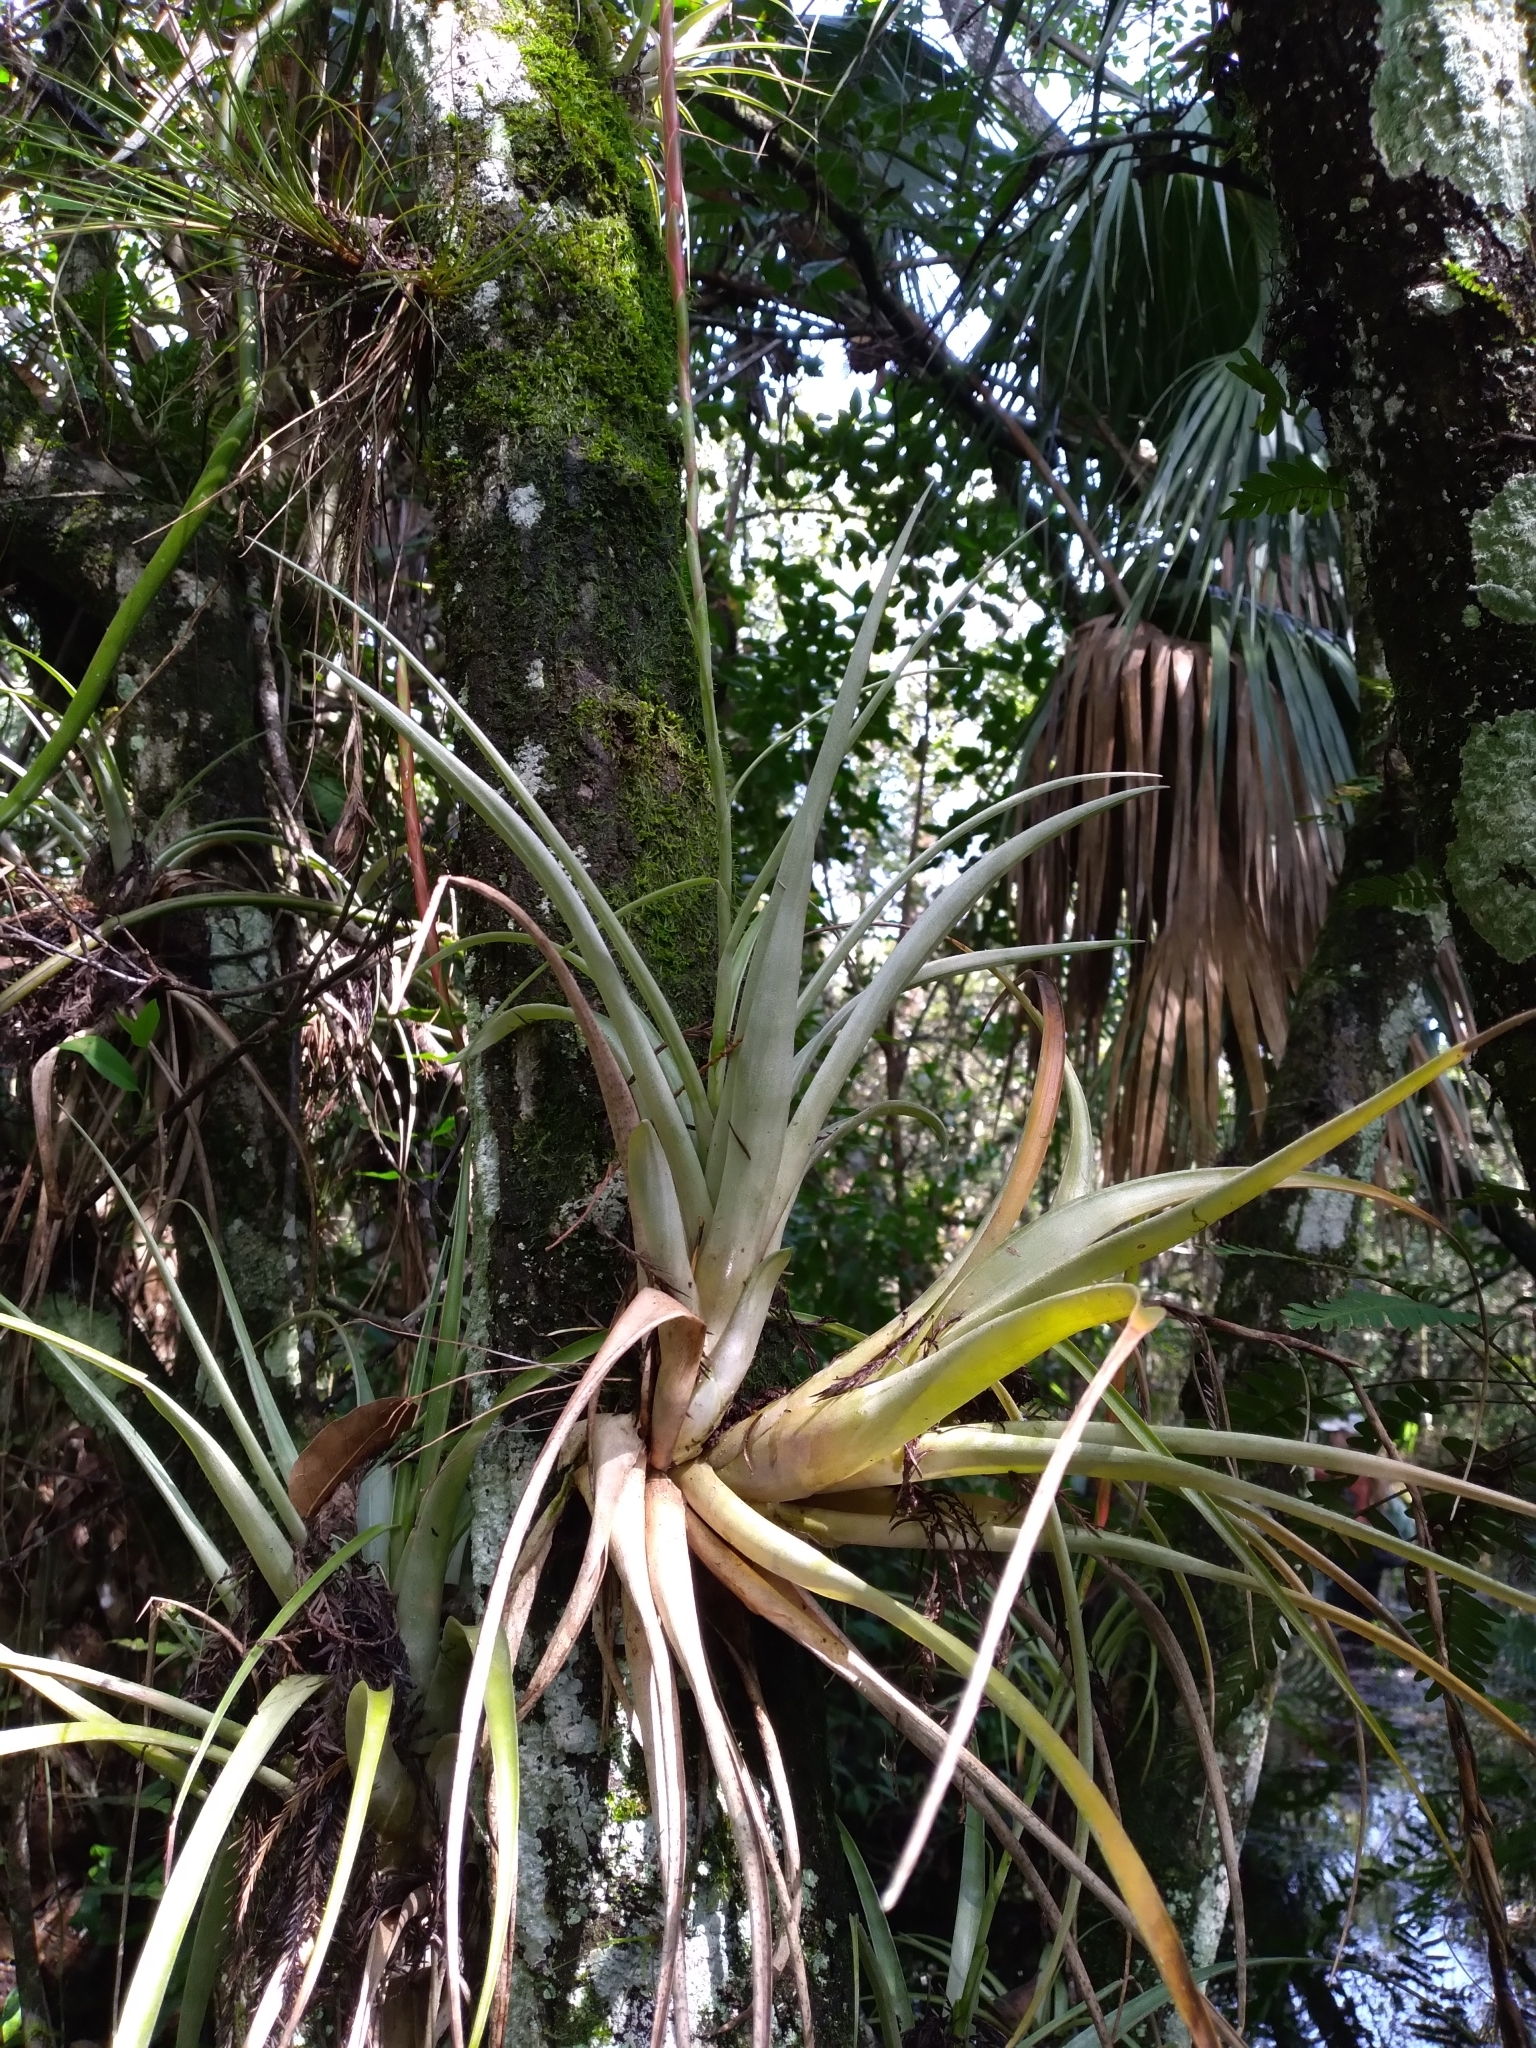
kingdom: Plantae
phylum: Tracheophyta
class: Liliopsida
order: Poales
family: Bromeliaceae
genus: Tillandsia
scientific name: Tillandsia variabilis
